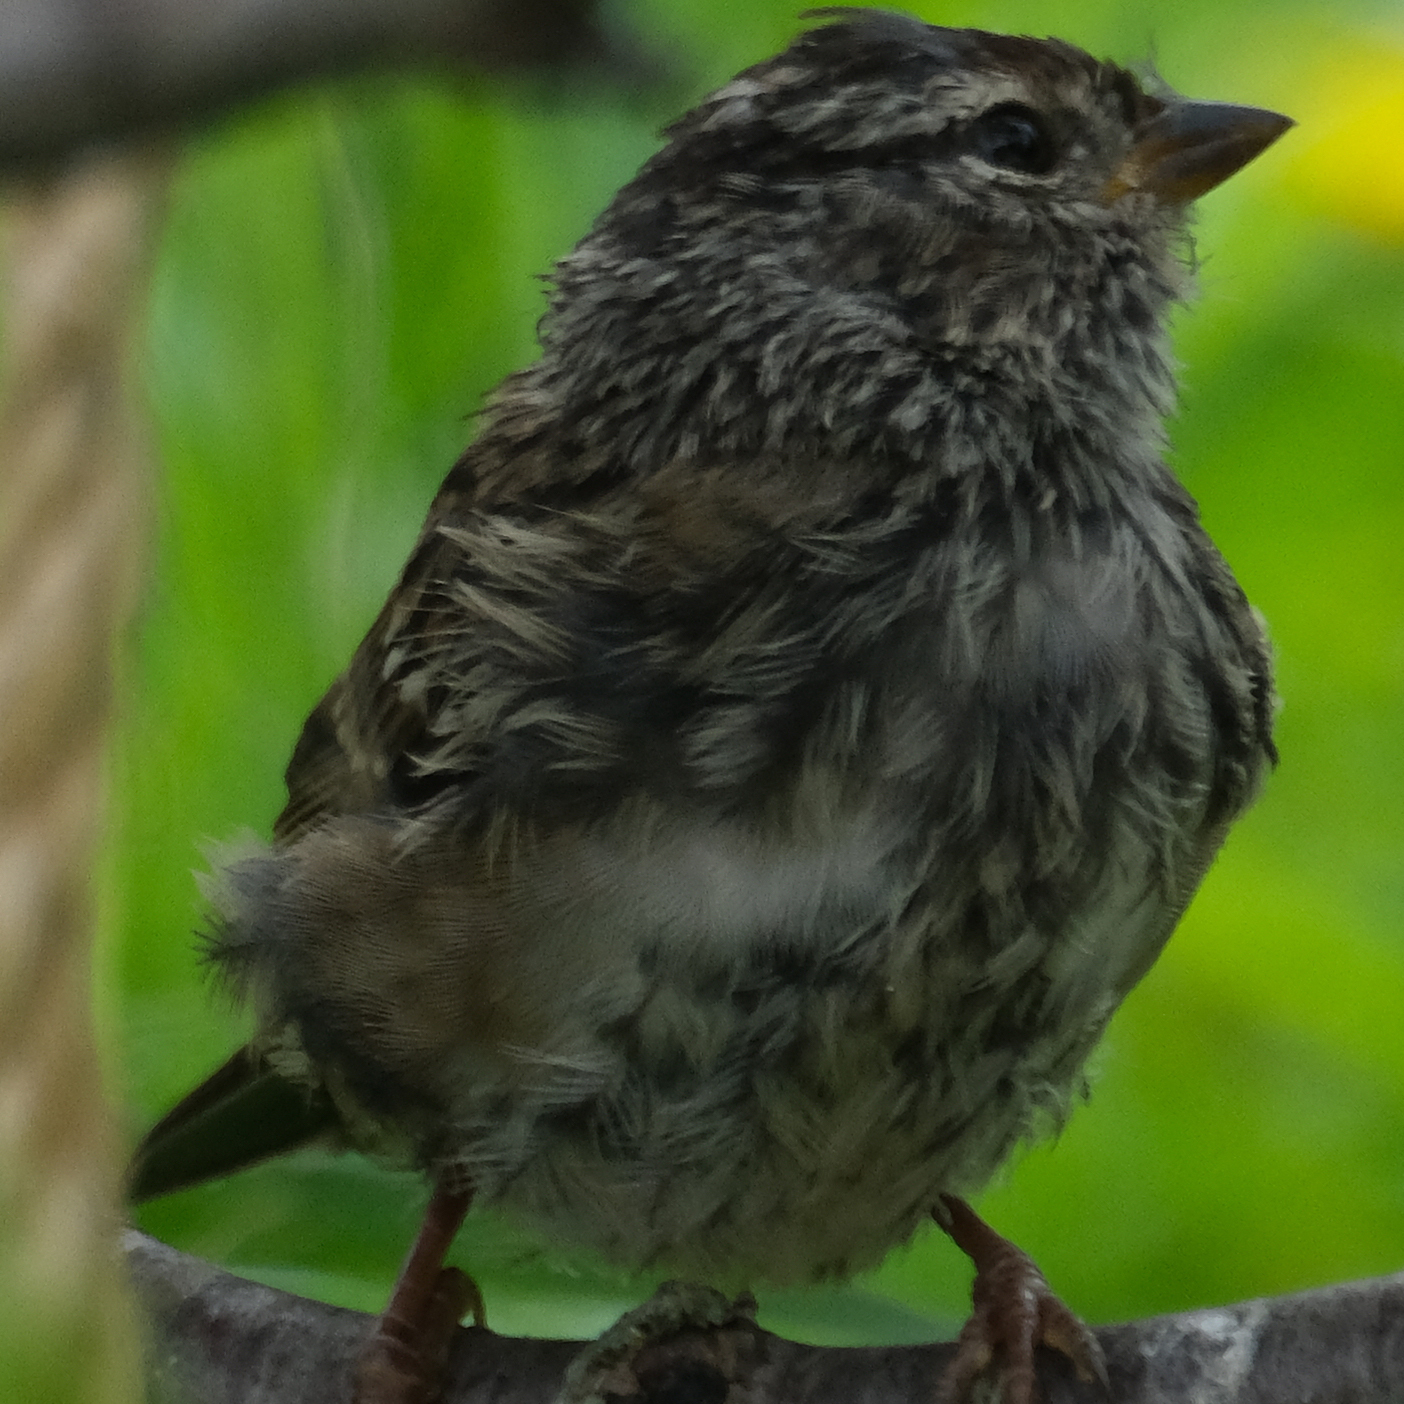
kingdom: Animalia
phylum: Chordata
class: Aves
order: Passeriformes
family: Passerellidae
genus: Zonotrichia
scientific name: Zonotrichia leucophrys
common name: White-crowned sparrow
